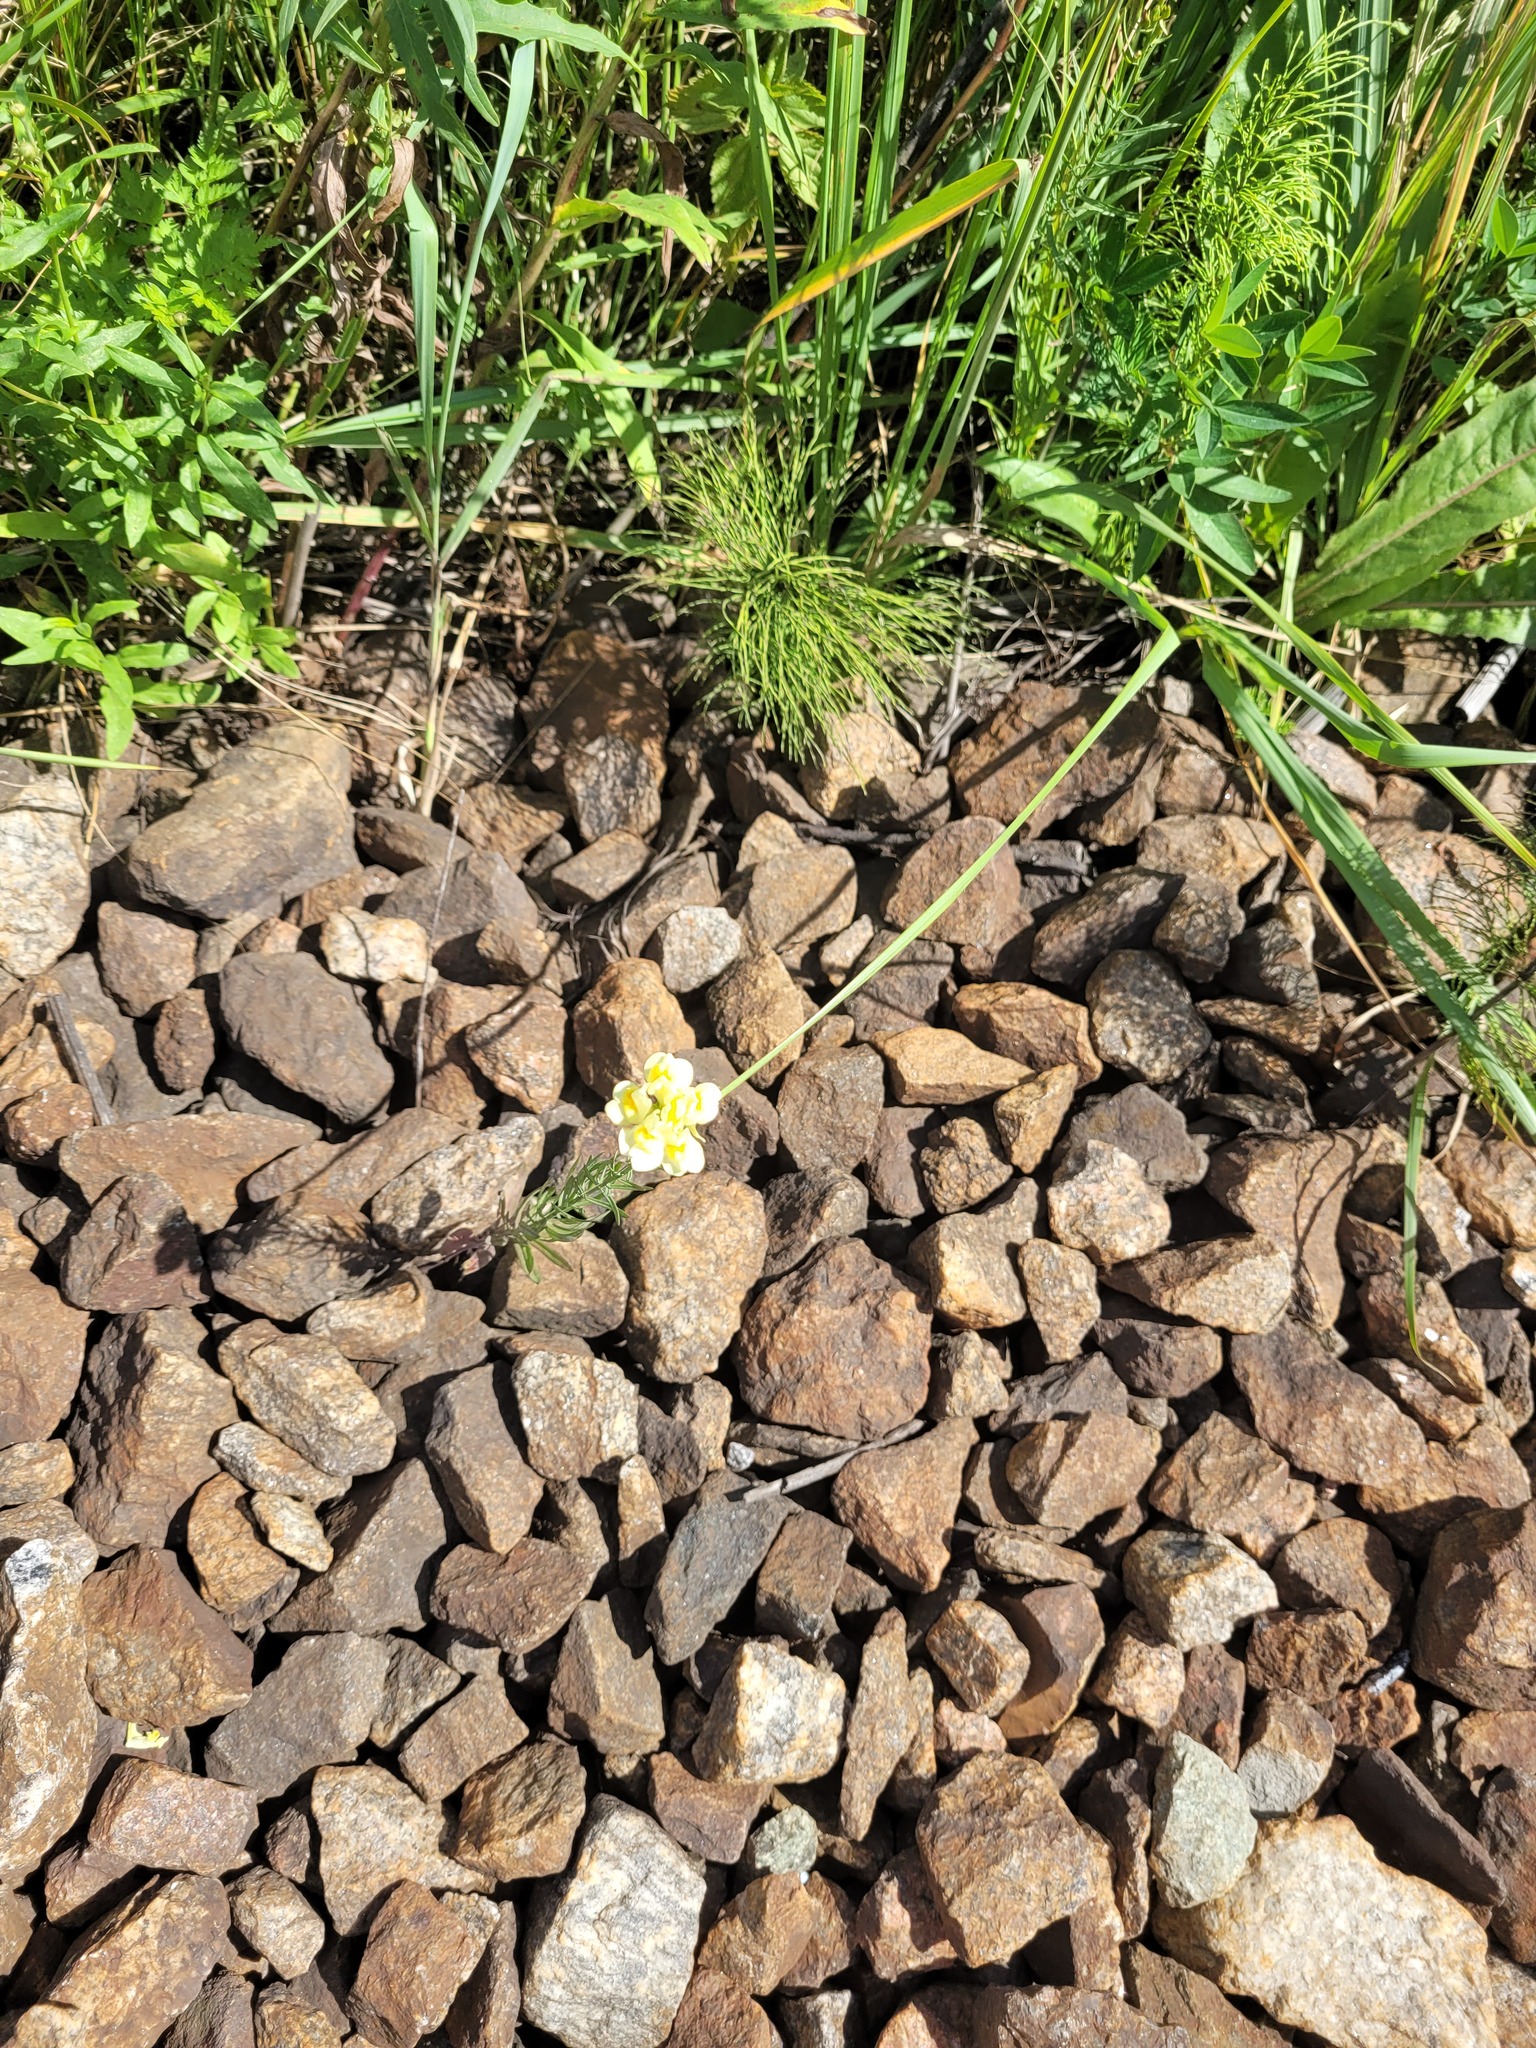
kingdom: Plantae
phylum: Tracheophyta
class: Magnoliopsida
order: Lamiales
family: Plantaginaceae
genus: Linaria
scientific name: Linaria vulgaris
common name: Butter and eggs
